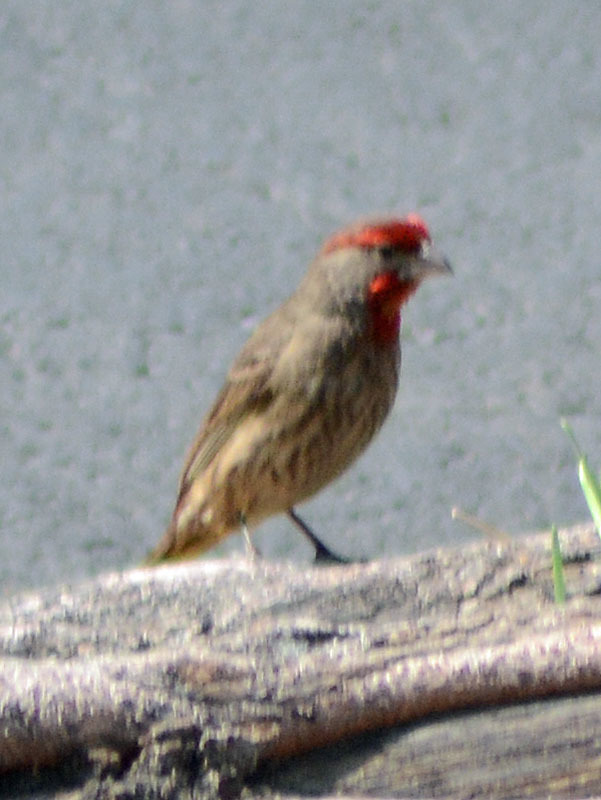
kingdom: Animalia
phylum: Chordata
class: Aves
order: Passeriformes
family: Fringillidae
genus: Haemorhous
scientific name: Haemorhous mexicanus
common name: House finch
